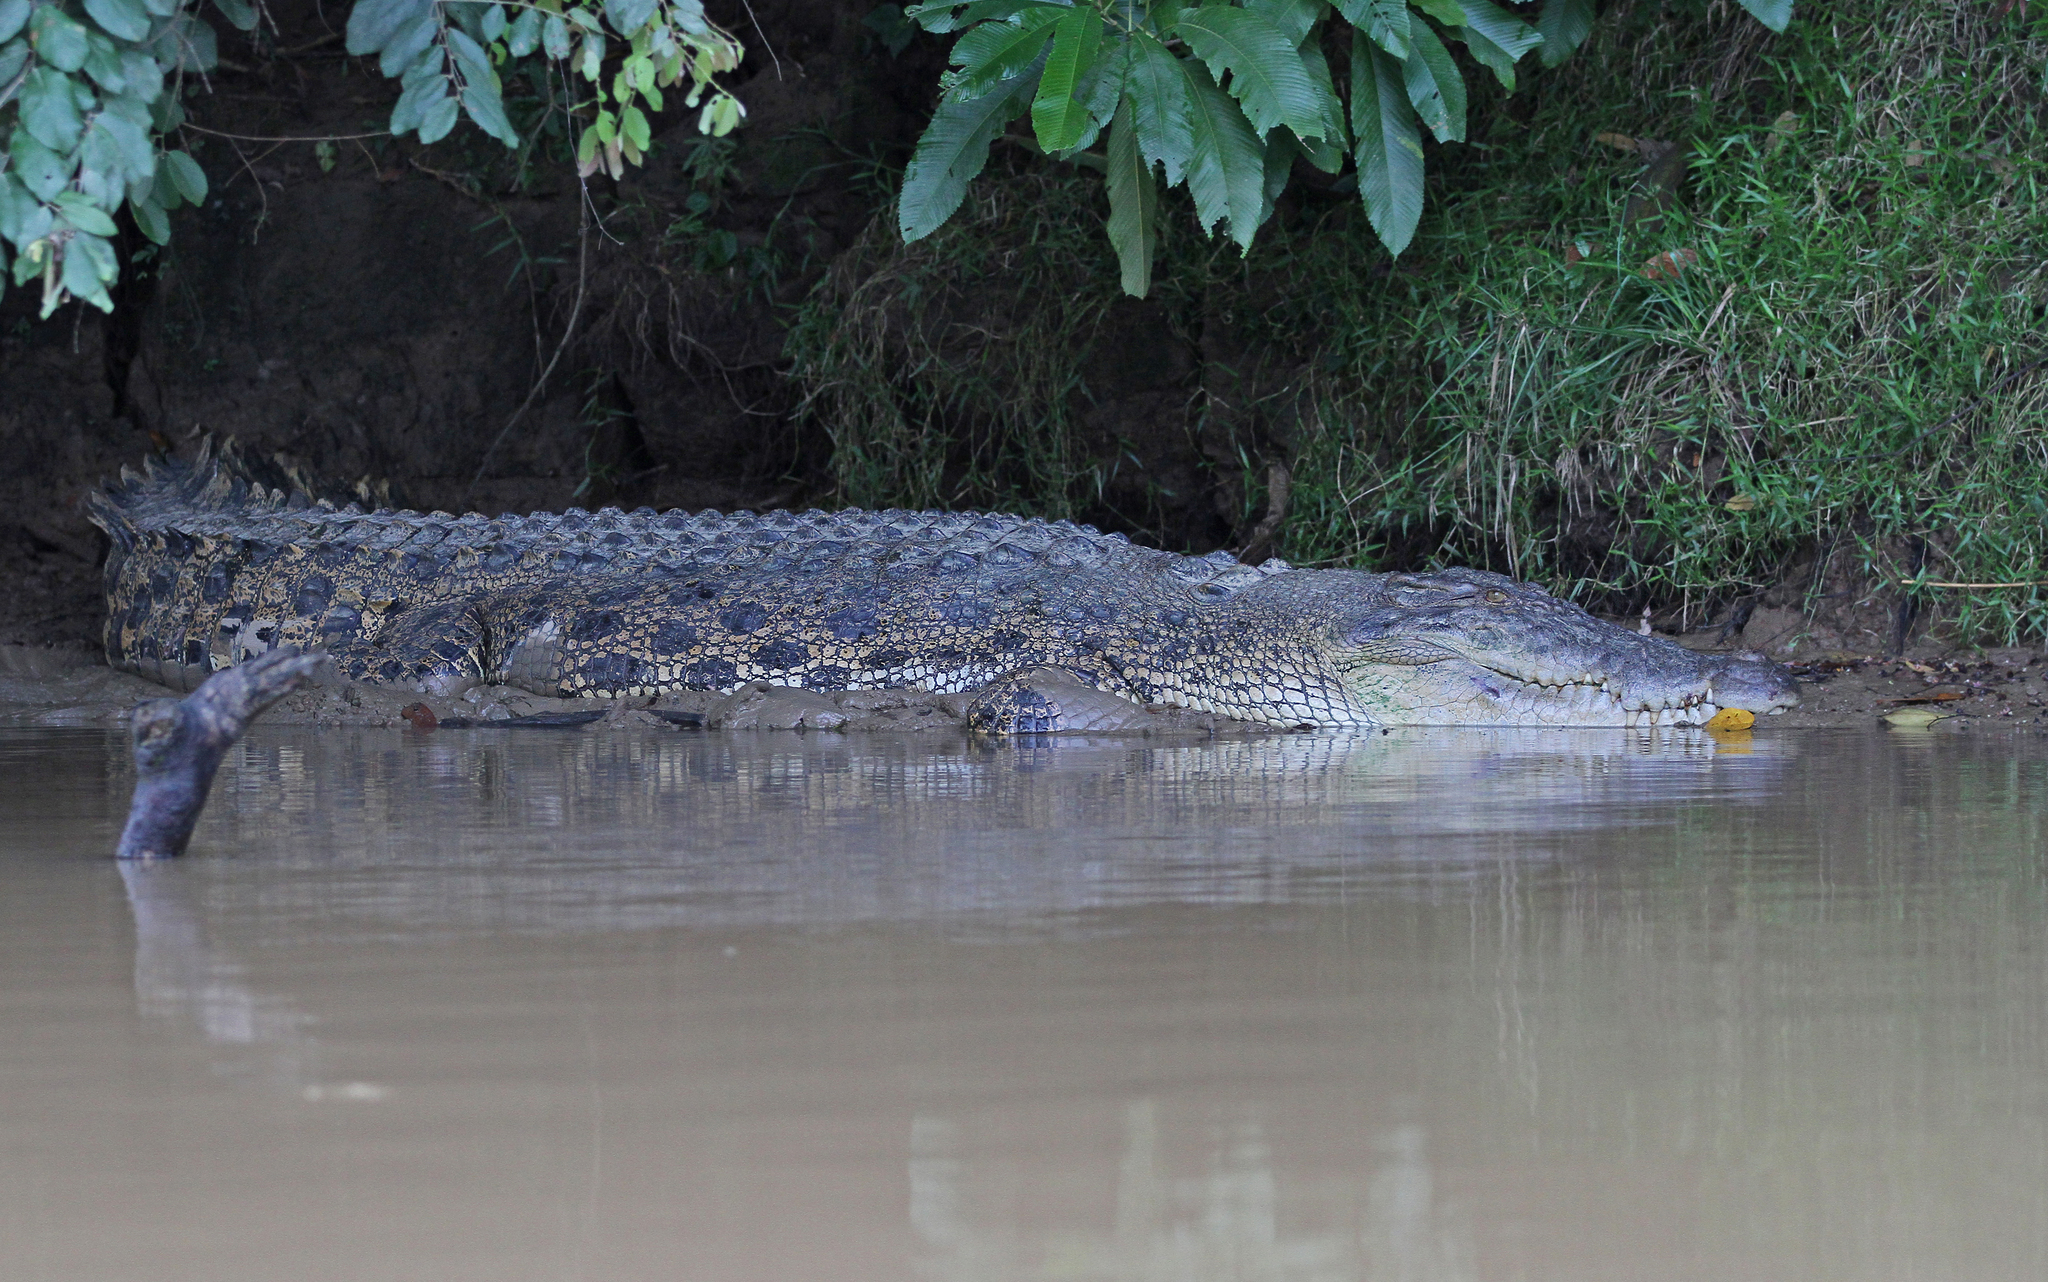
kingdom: Animalia
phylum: Chordata
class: Crocodylia
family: Crocodylidae
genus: Crocodylus
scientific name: Crocodylus porosus
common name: Saltwater crocodile
